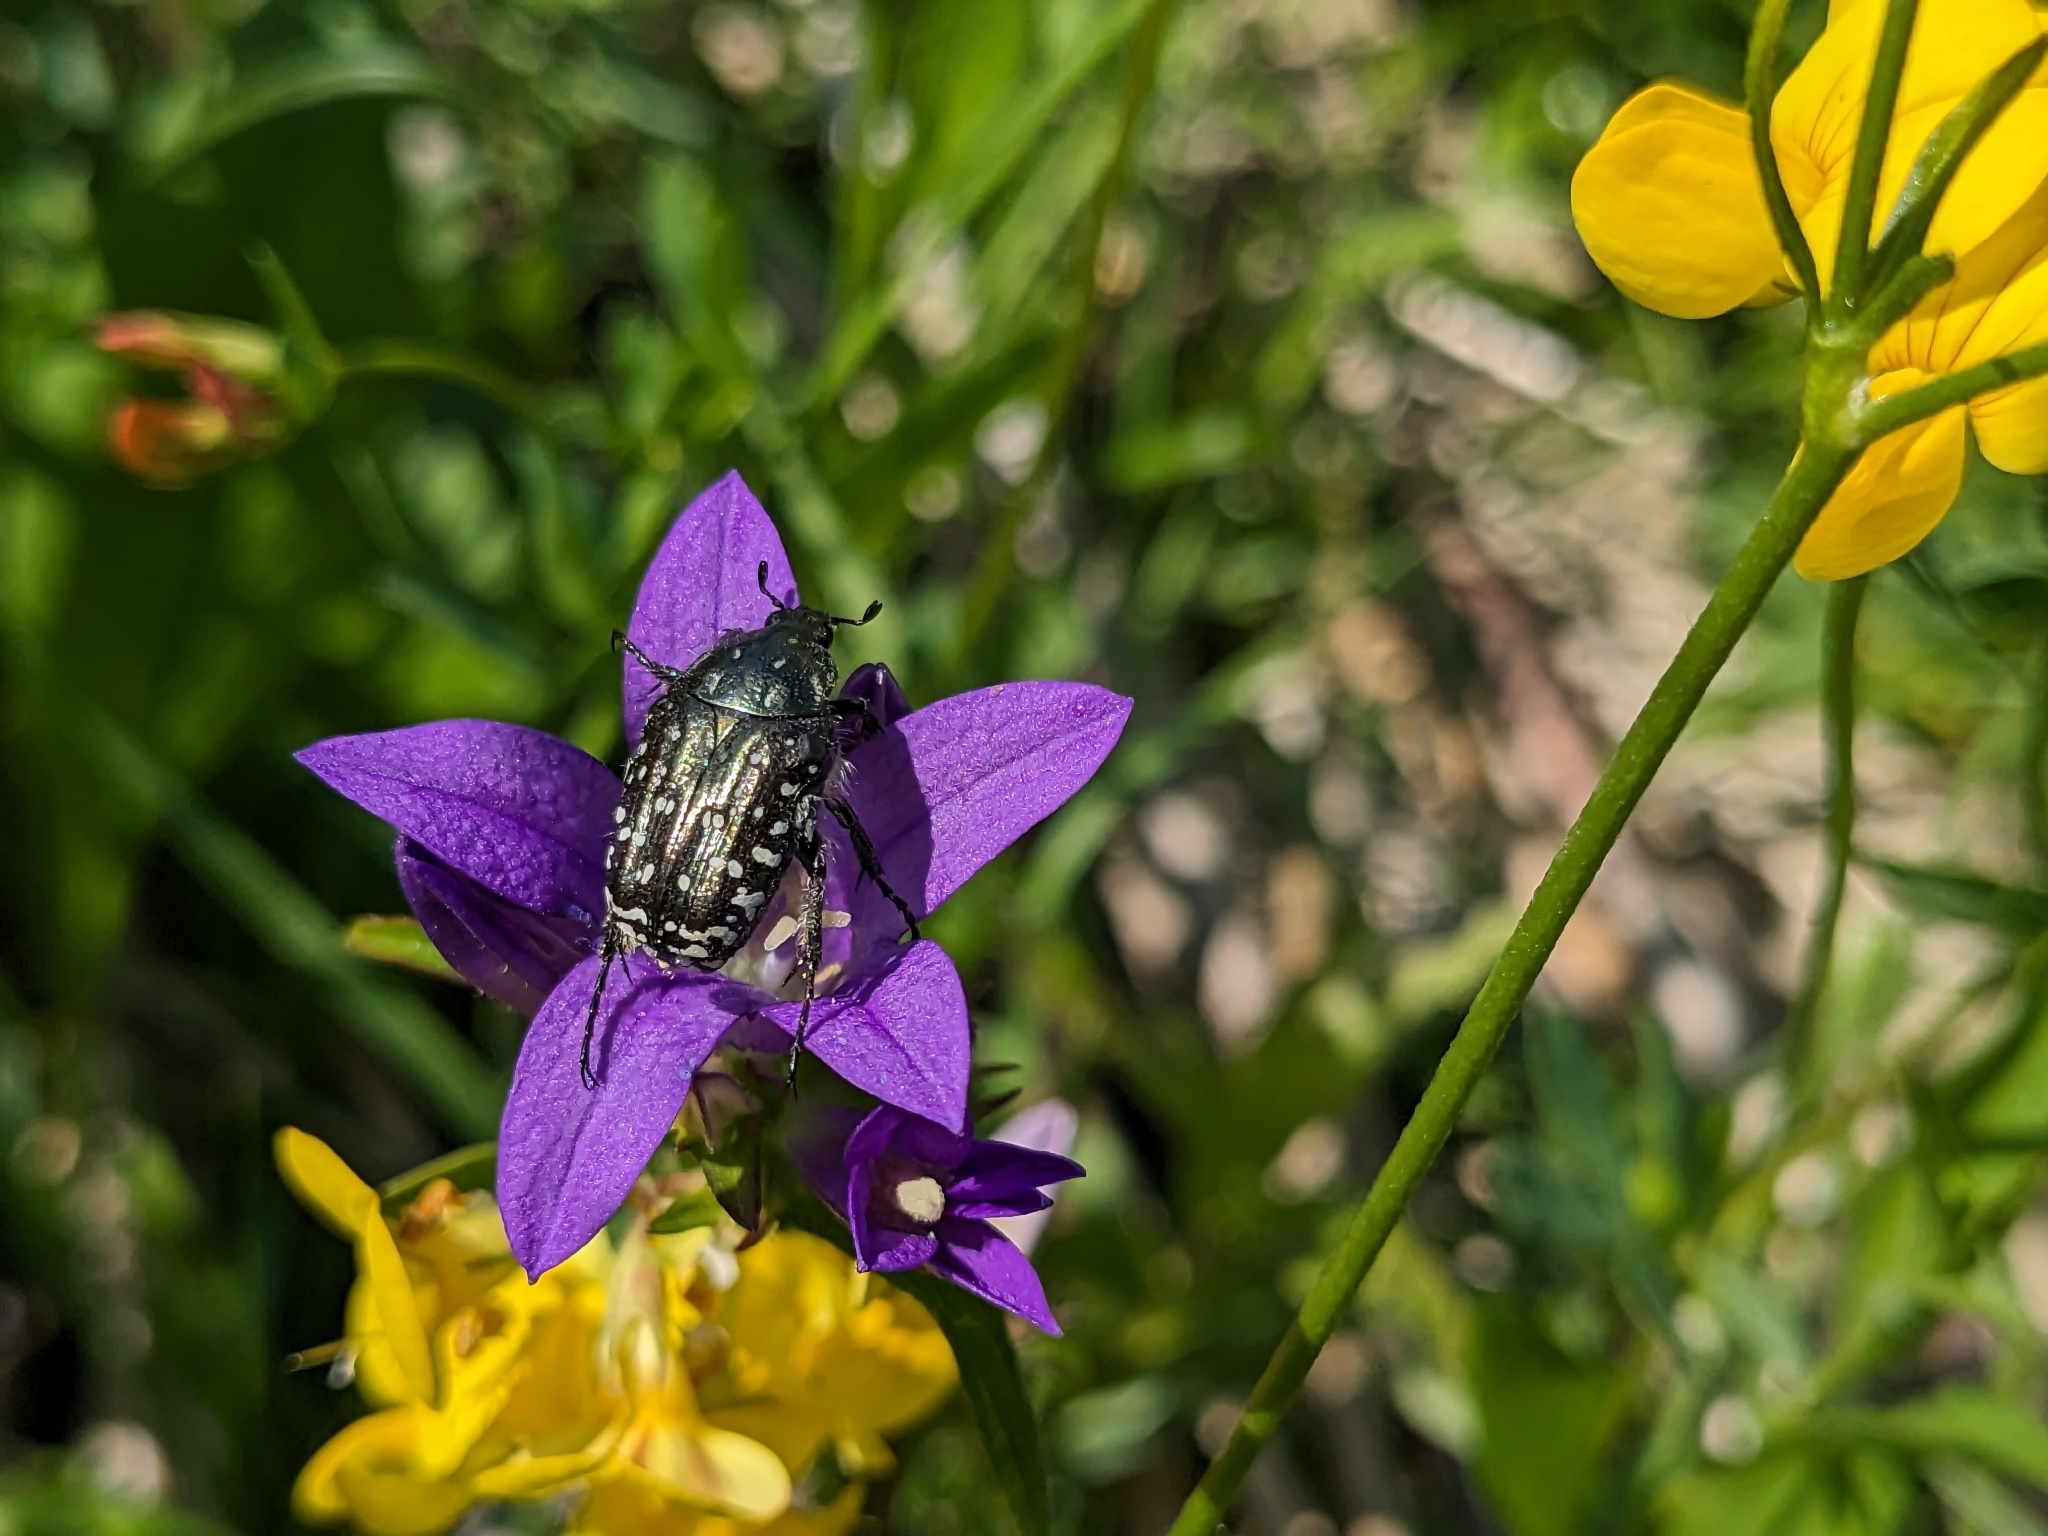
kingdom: Animalia
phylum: Arthropoda
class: Insecta
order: Coleoptera
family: Scarabaeidae
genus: Oxythyrea
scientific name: Oxythyrea funesta
